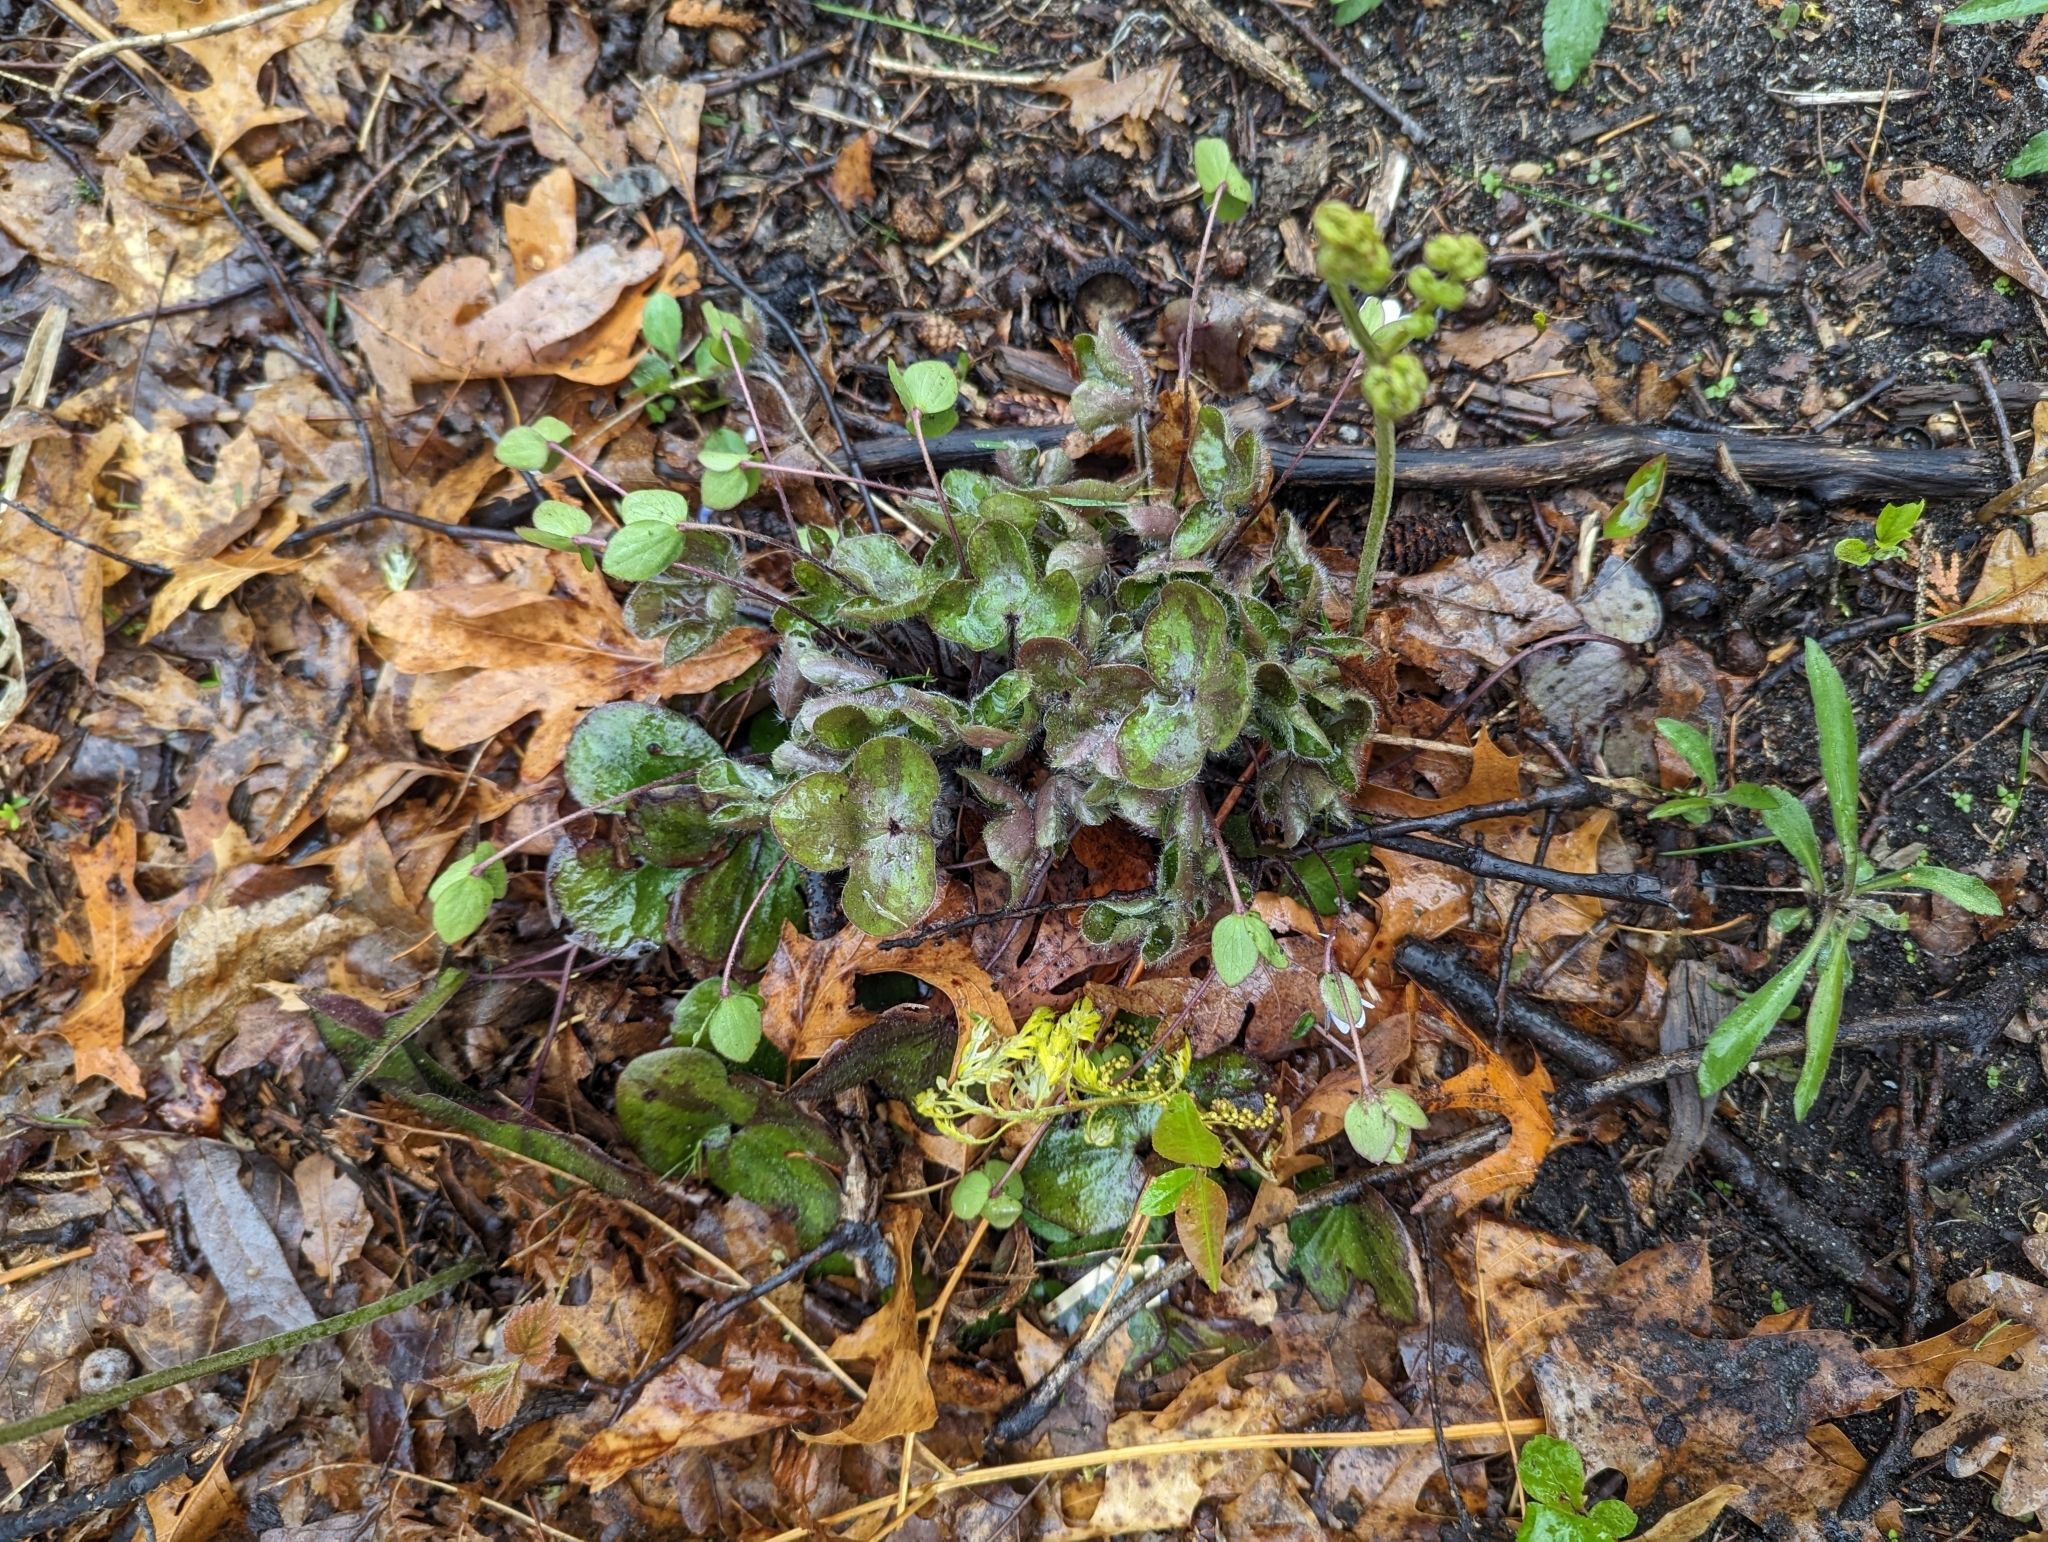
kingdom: Plantae
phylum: Tracheophyta
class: Magnoliopsida
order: Ranunculales
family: Ranunculaceae
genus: Hepatica
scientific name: Hepatica americana
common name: American hepatica
